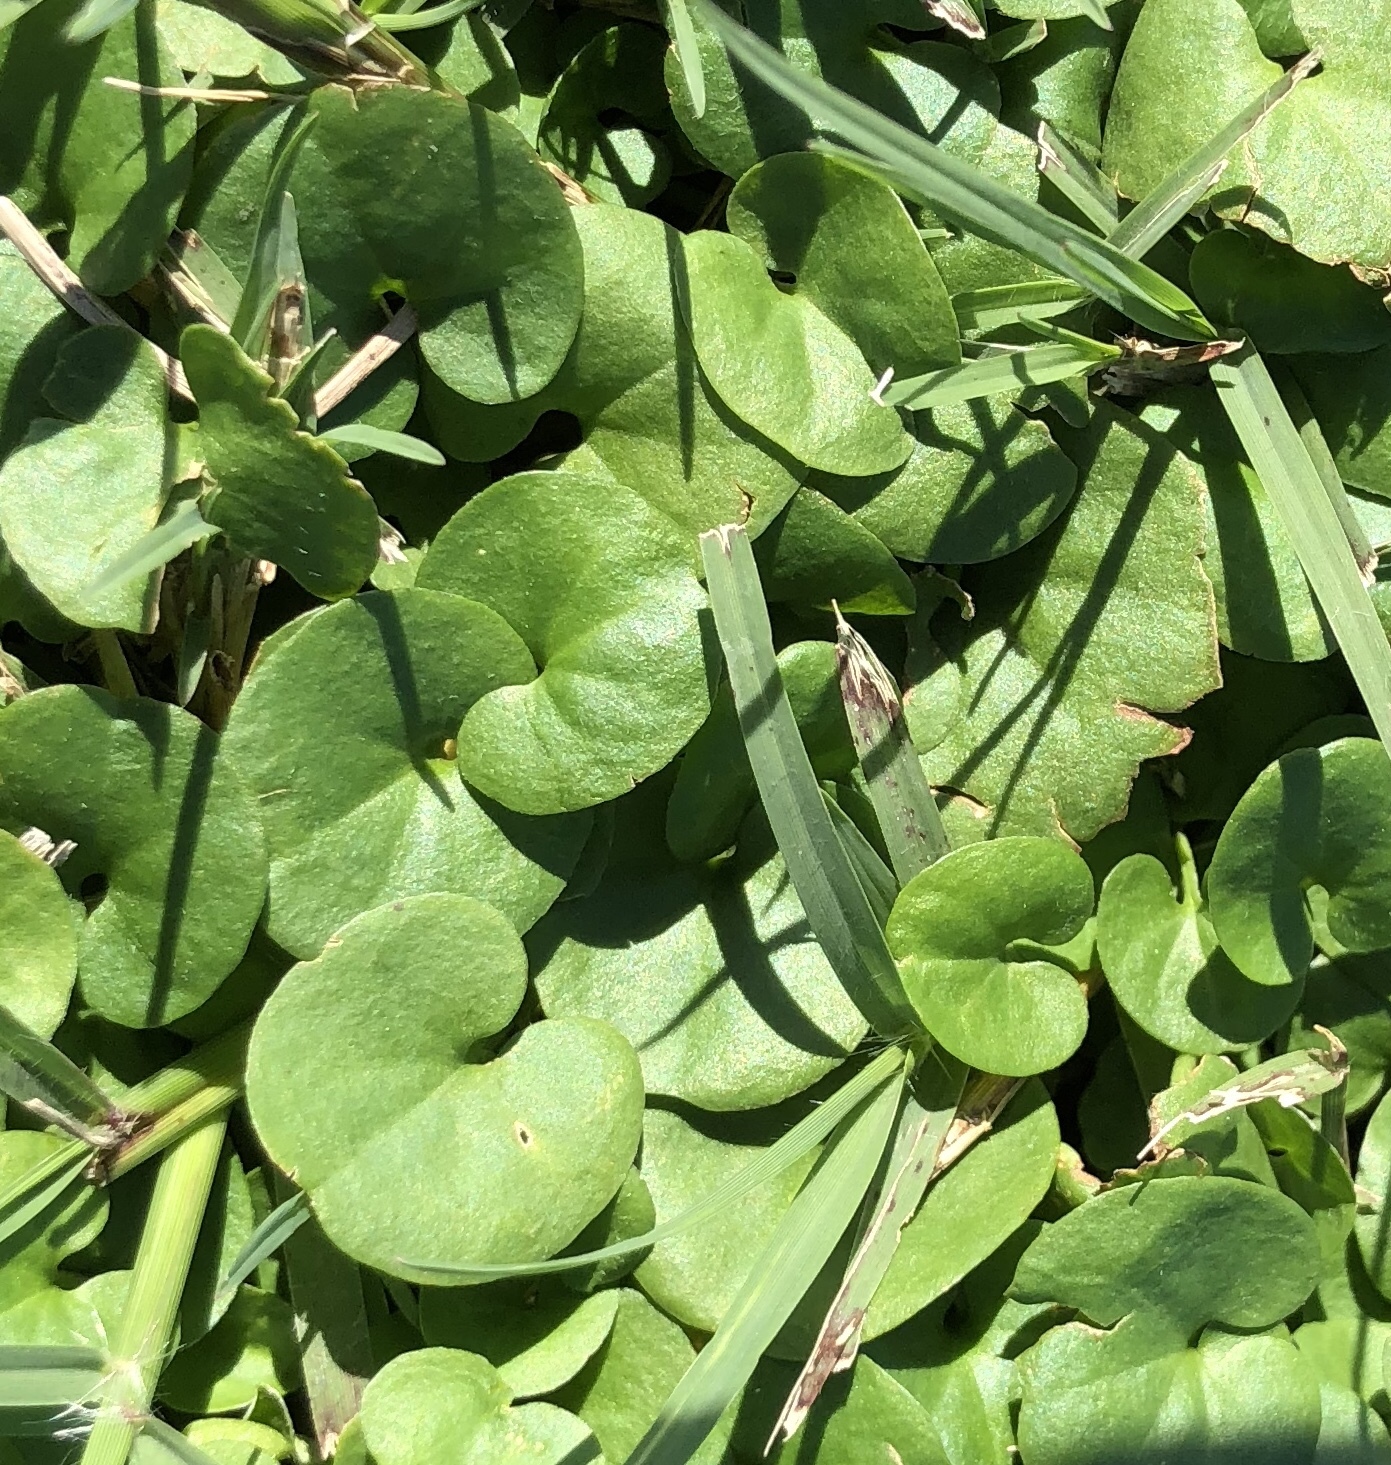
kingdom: Plantae
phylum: Tracheophyta
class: Magnoliopsida
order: Solanales
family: Convolvulaceae
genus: Dichondra
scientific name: Dichondra carolinensis
